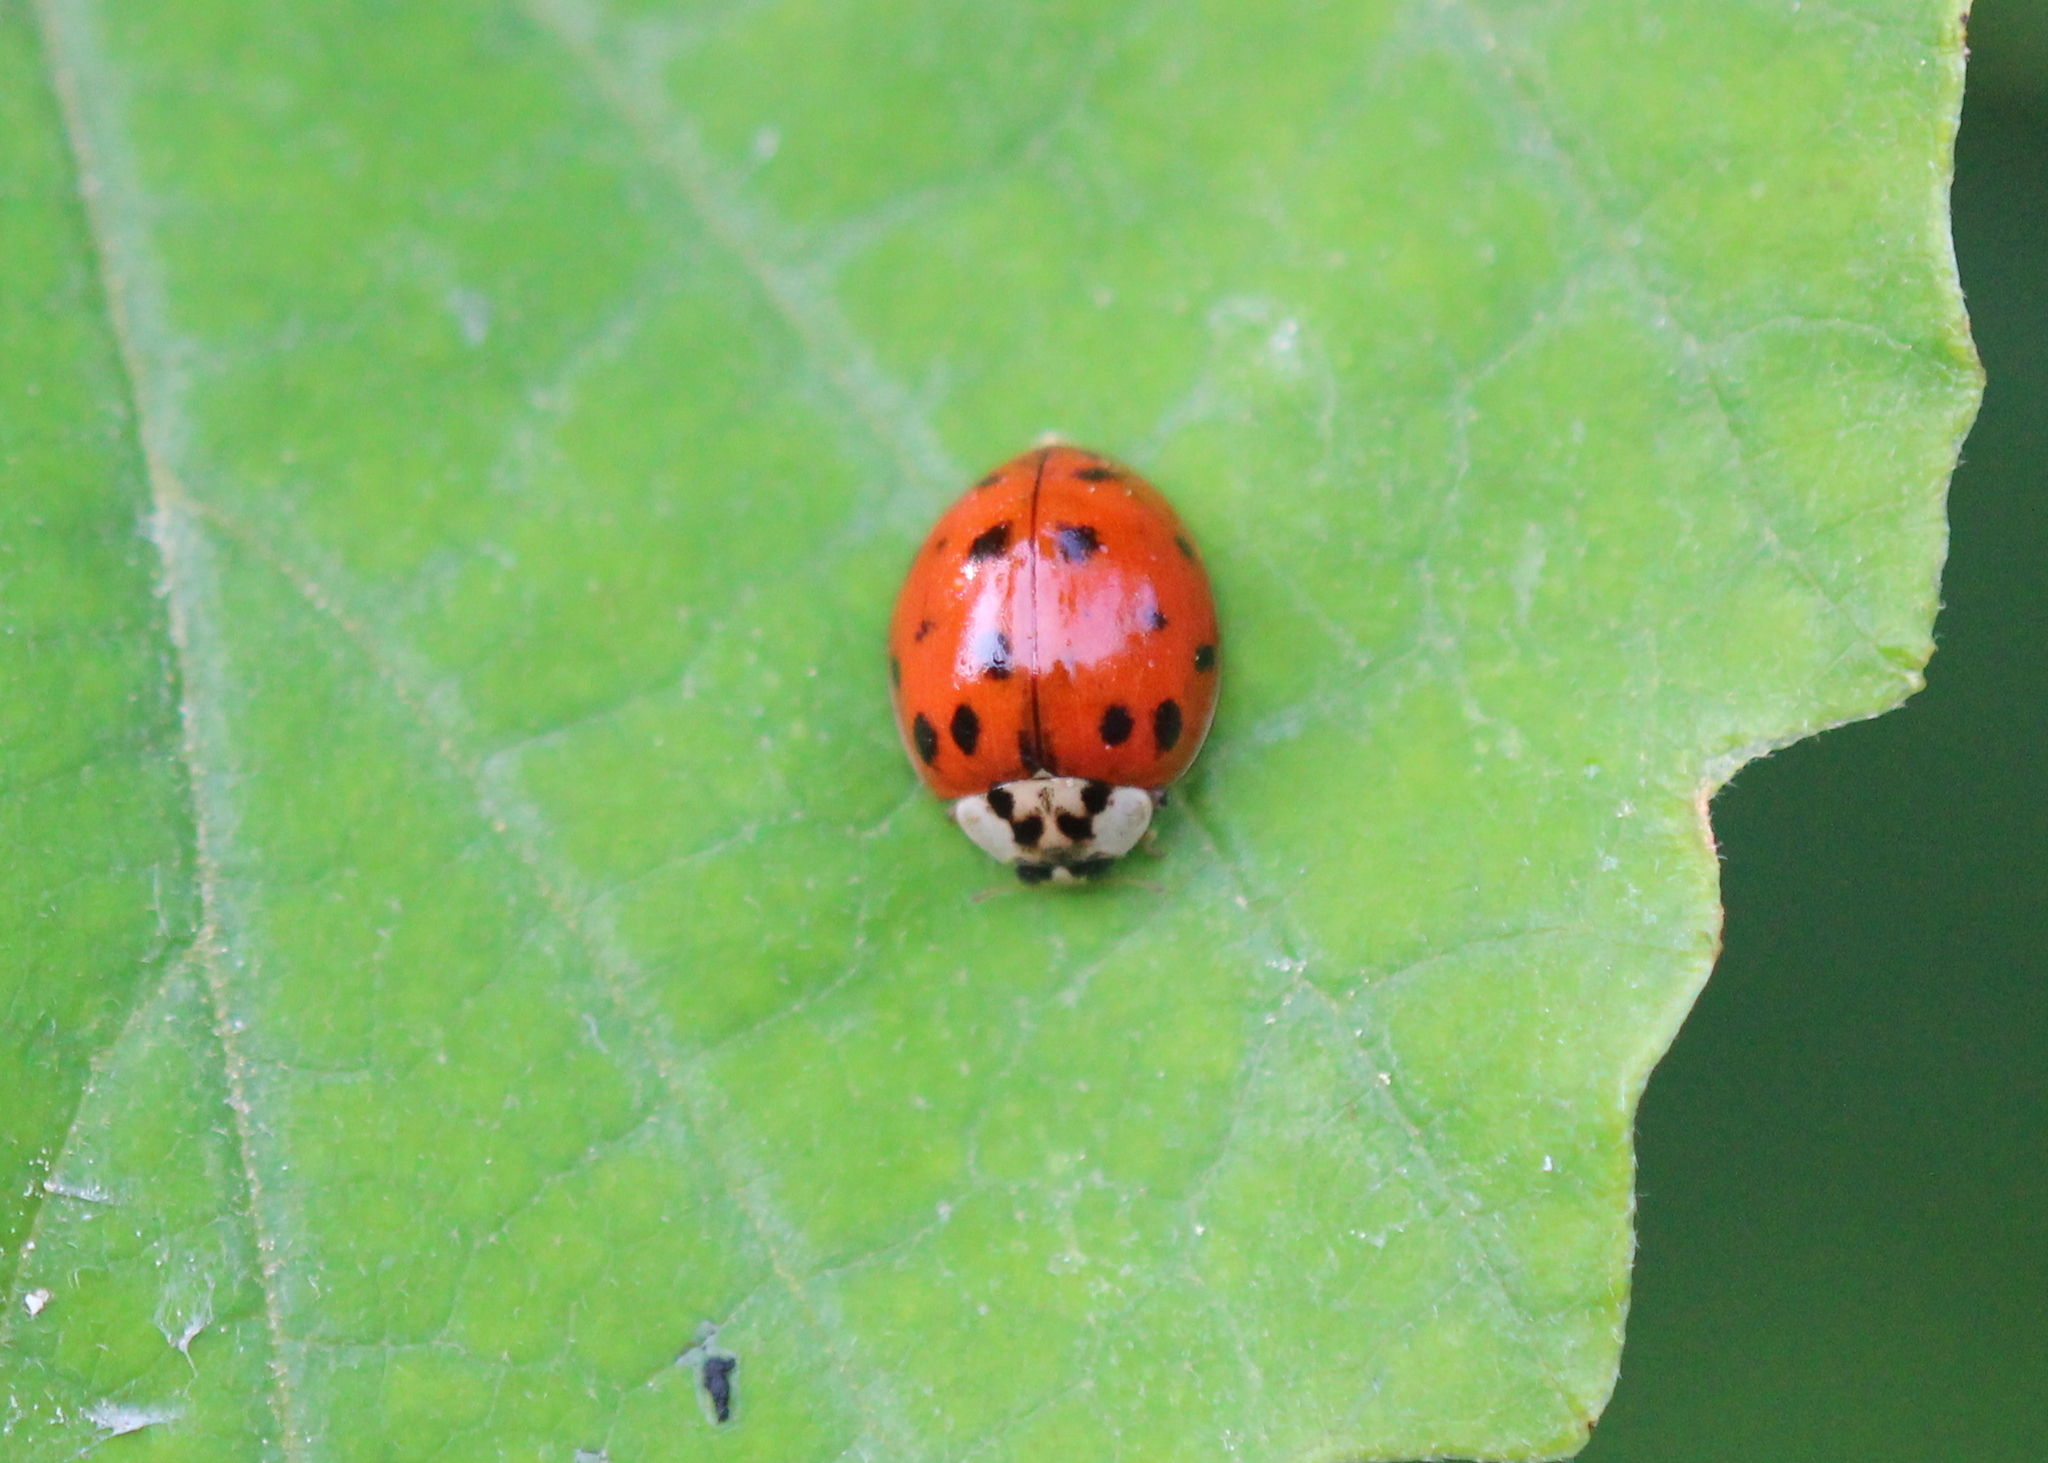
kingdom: Animalia
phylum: Arthropoda
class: Insecta
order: Coleoptera
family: Coccinellidae
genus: Harmonia
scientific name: Harmonia axyridis
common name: Harlequin ladybird
